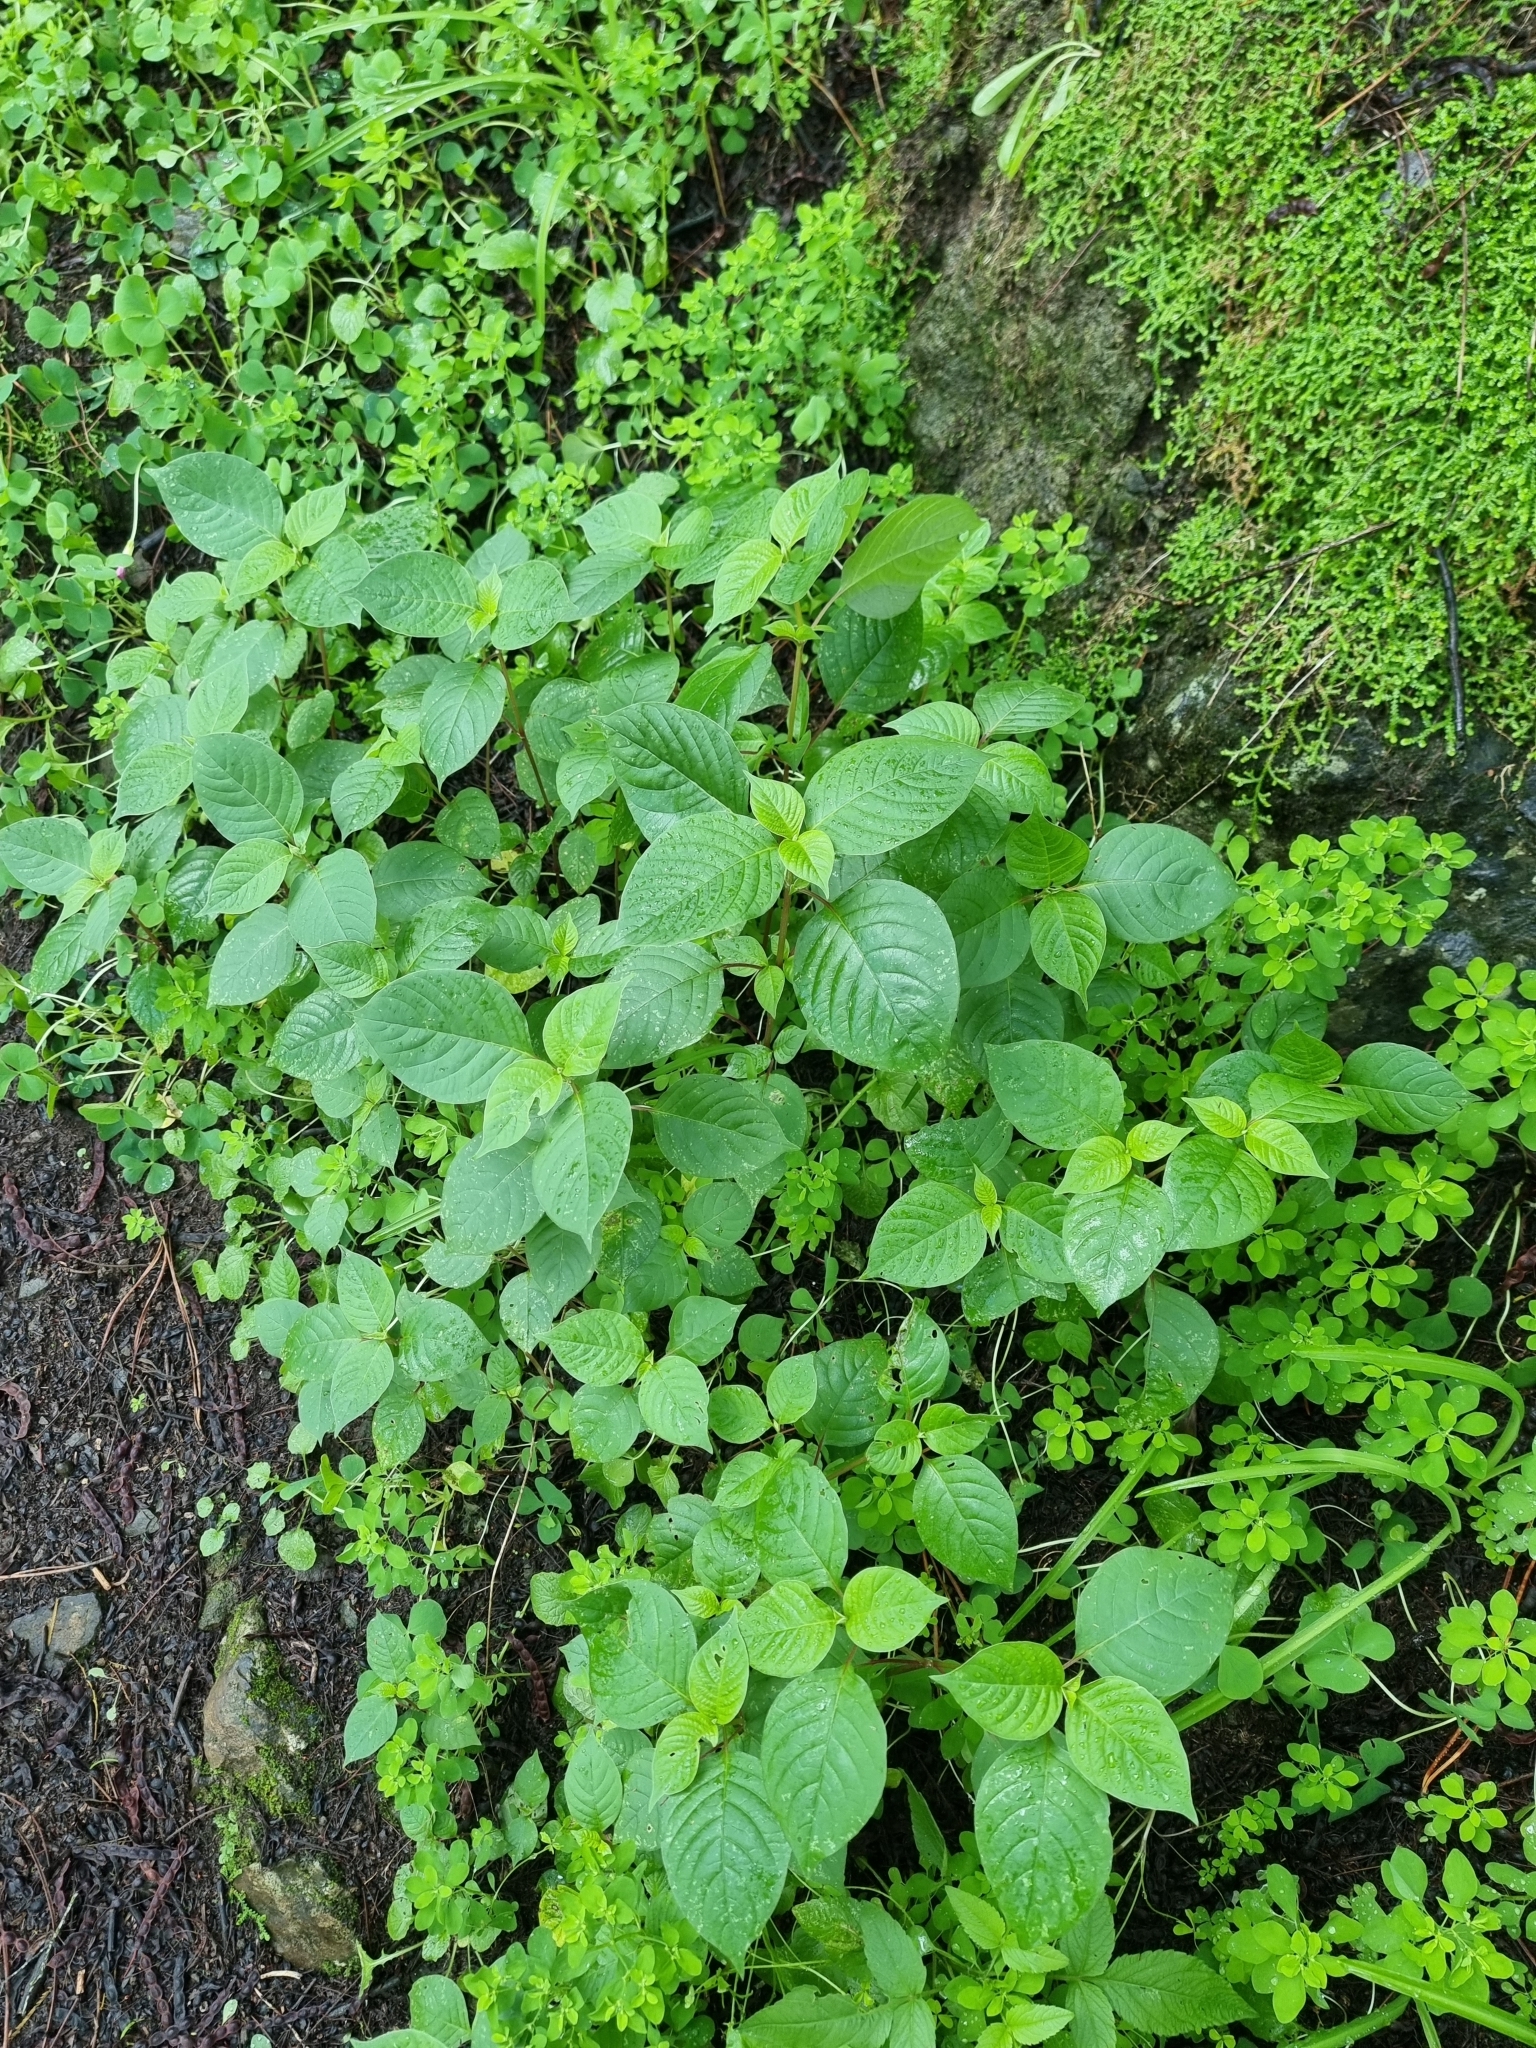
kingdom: Plantae
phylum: Tracheophyta
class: Magnoliopsida
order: Caryophyllales
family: Amaranthaceae
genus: Achyranthes
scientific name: Achyranthes aspera
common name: Devil's horsewhip
